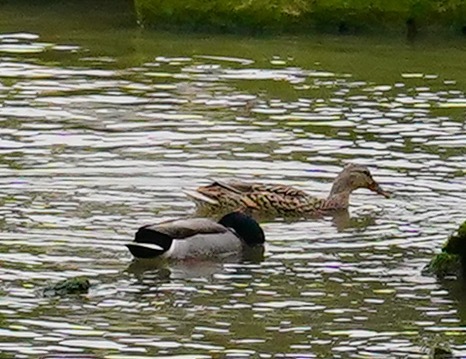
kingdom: Animalia
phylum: Chordata
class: Aves
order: Anseriformes
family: Anatidae
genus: Anas
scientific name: Anas platyrhynchos
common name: Mallard
